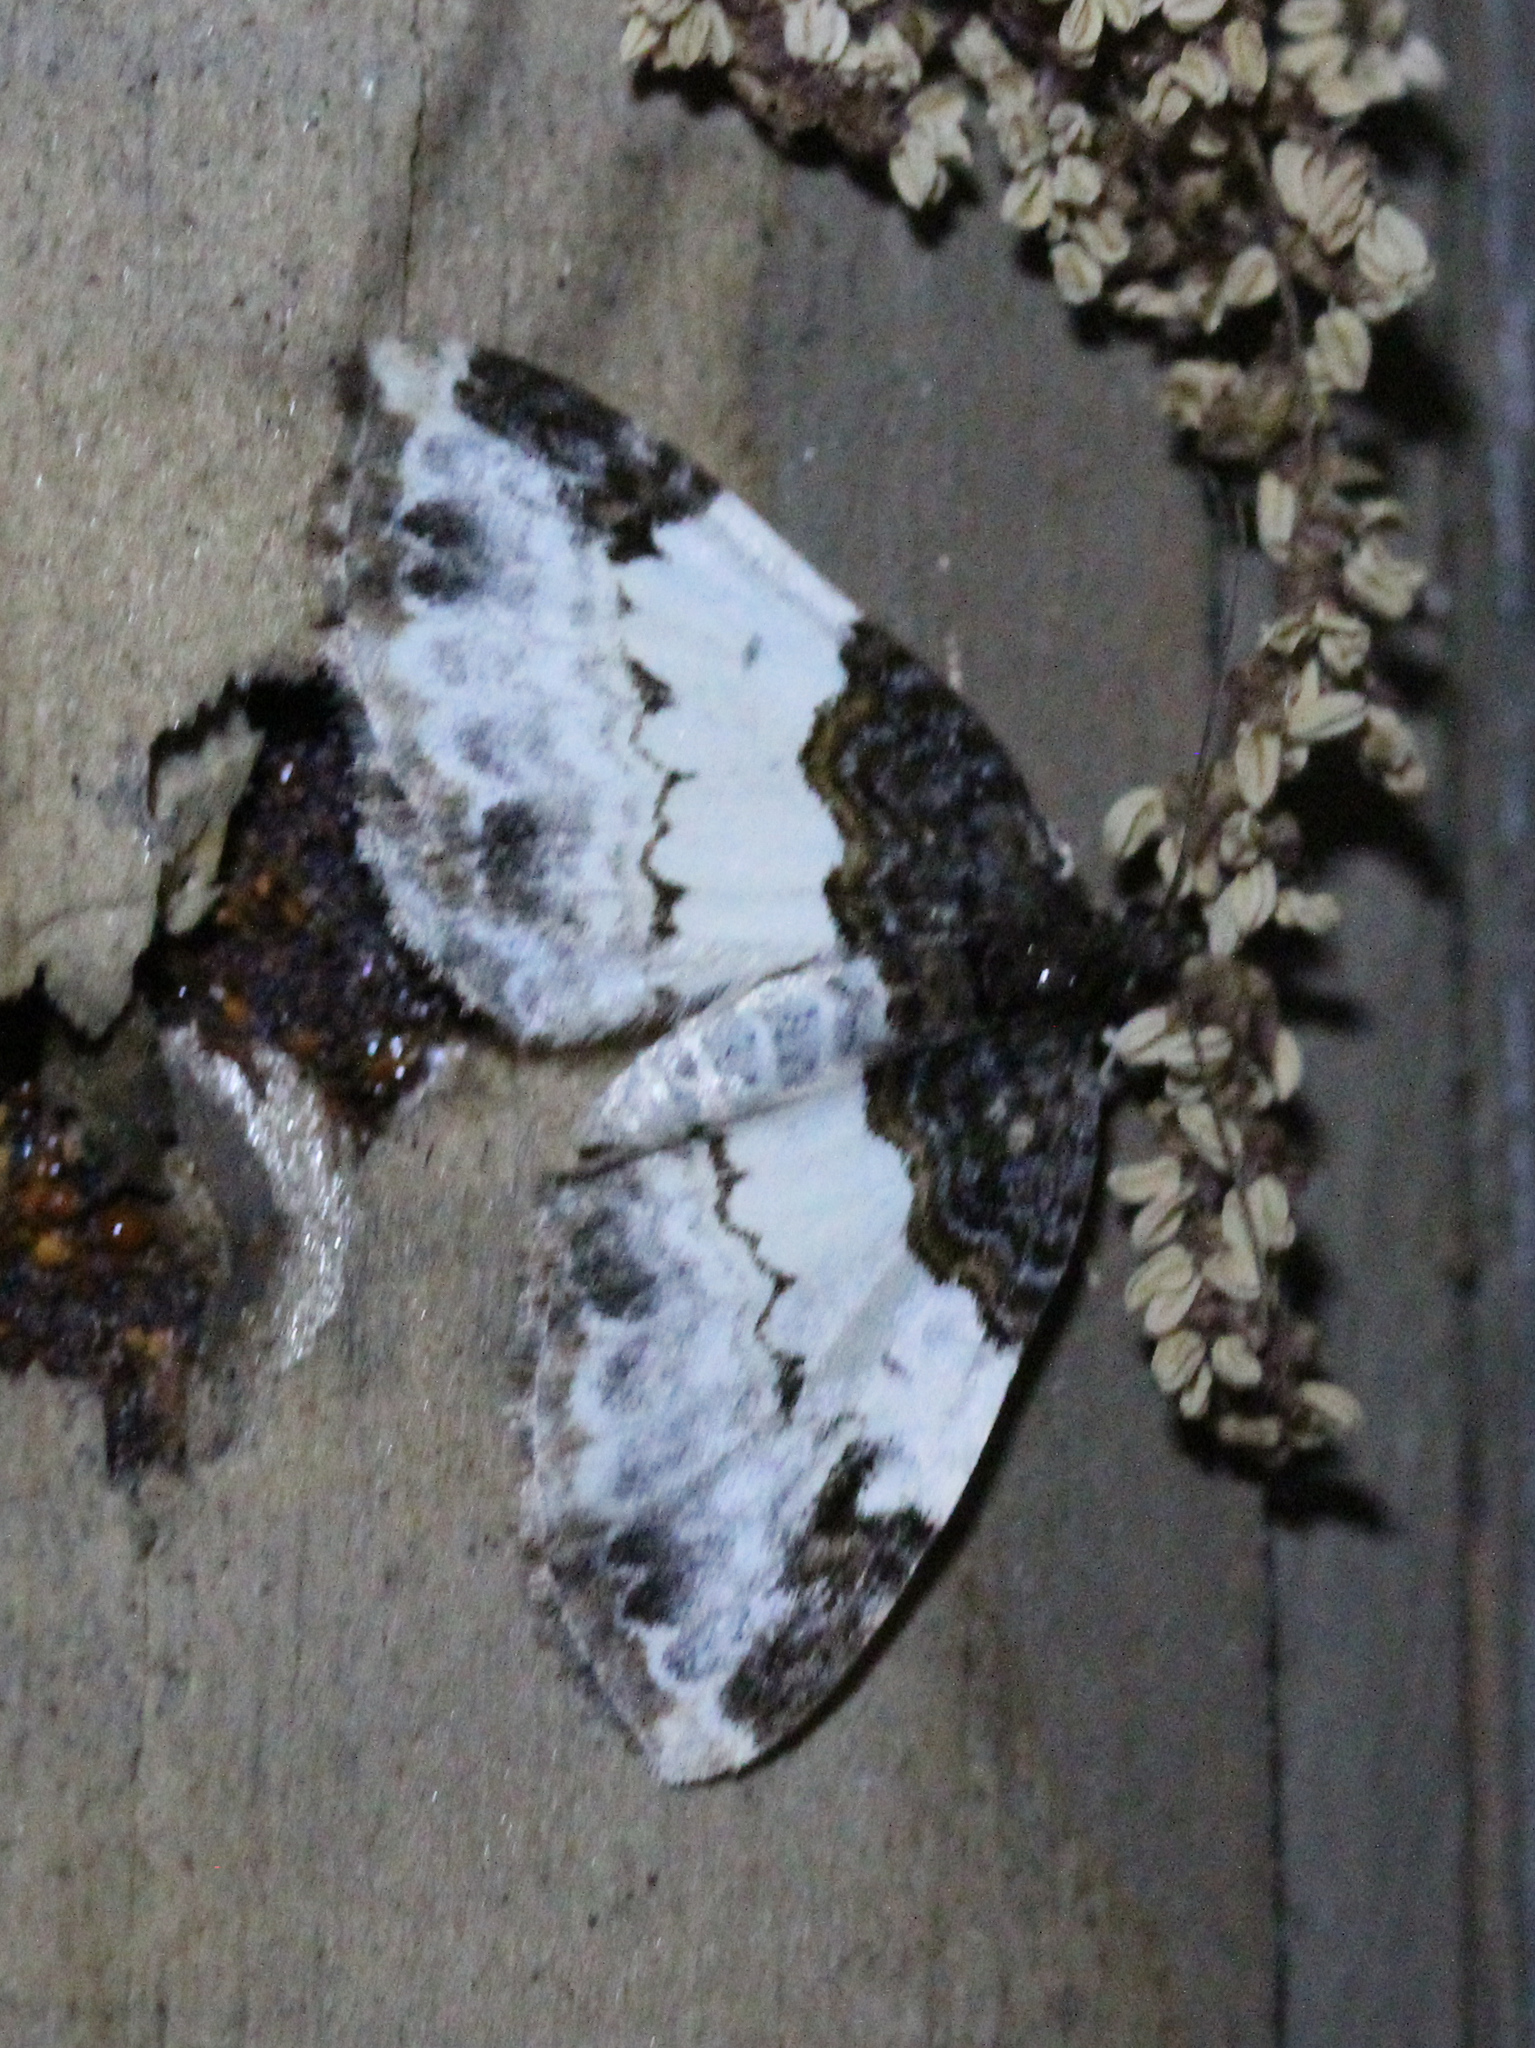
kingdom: Animalia
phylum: Arthropoda
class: Insecta
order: Lepidoptera
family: Geometridae
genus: Mesoleuca
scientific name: Mesoleuca ruficillata
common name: White-ribboned carpet moth
